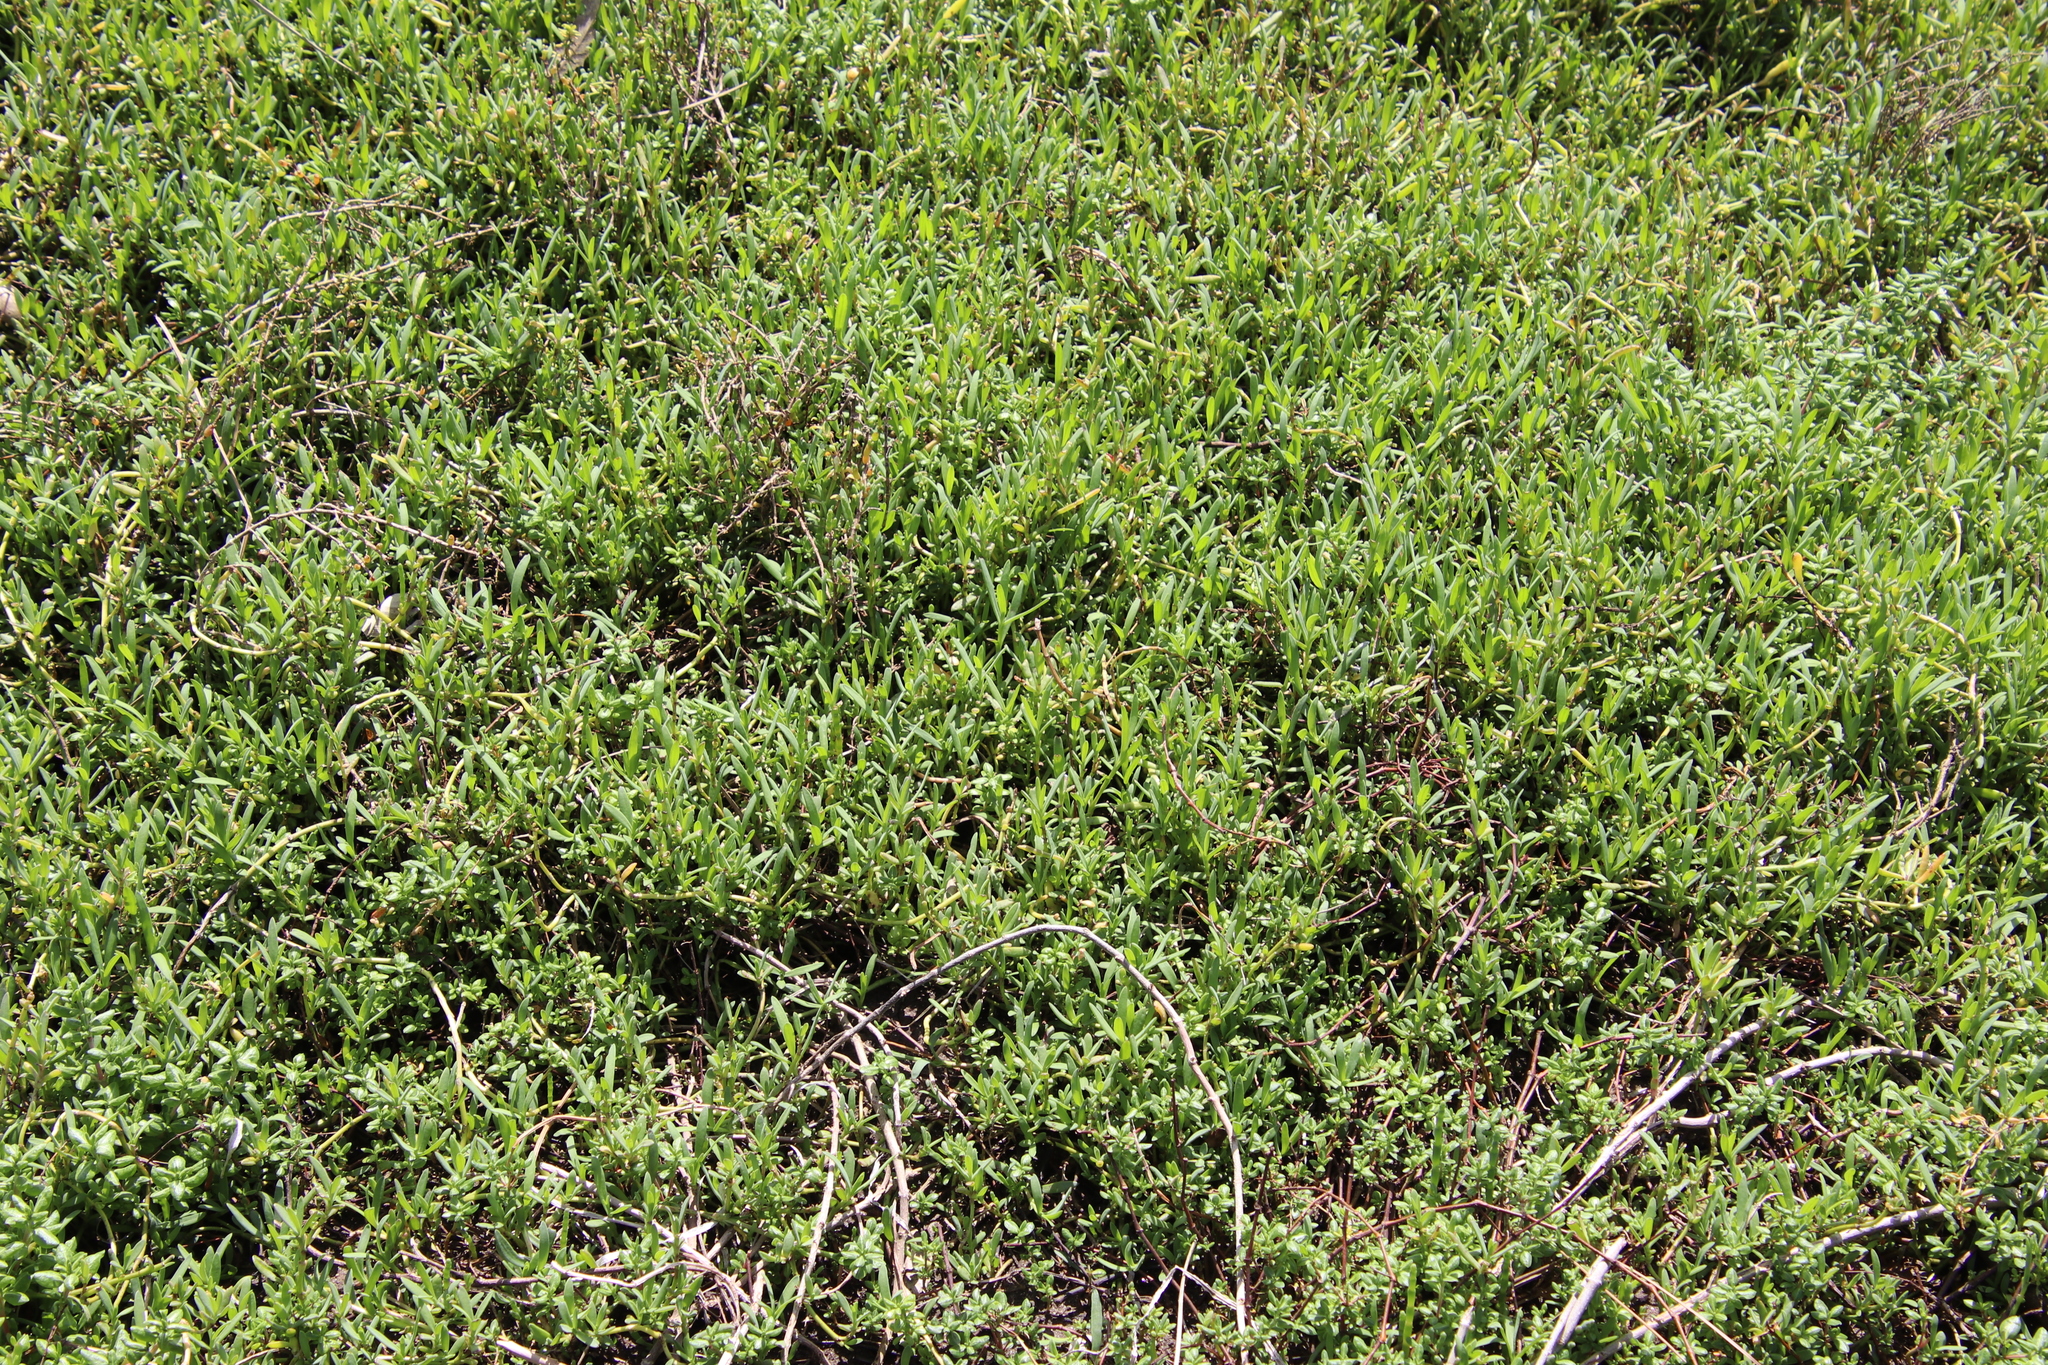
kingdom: Plantae
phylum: Tracheophyta
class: Magnoliopsida
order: Asterales
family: Asteraceae
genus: Jaumea
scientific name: Jaumea carnosa
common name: Fleshy jaumea
